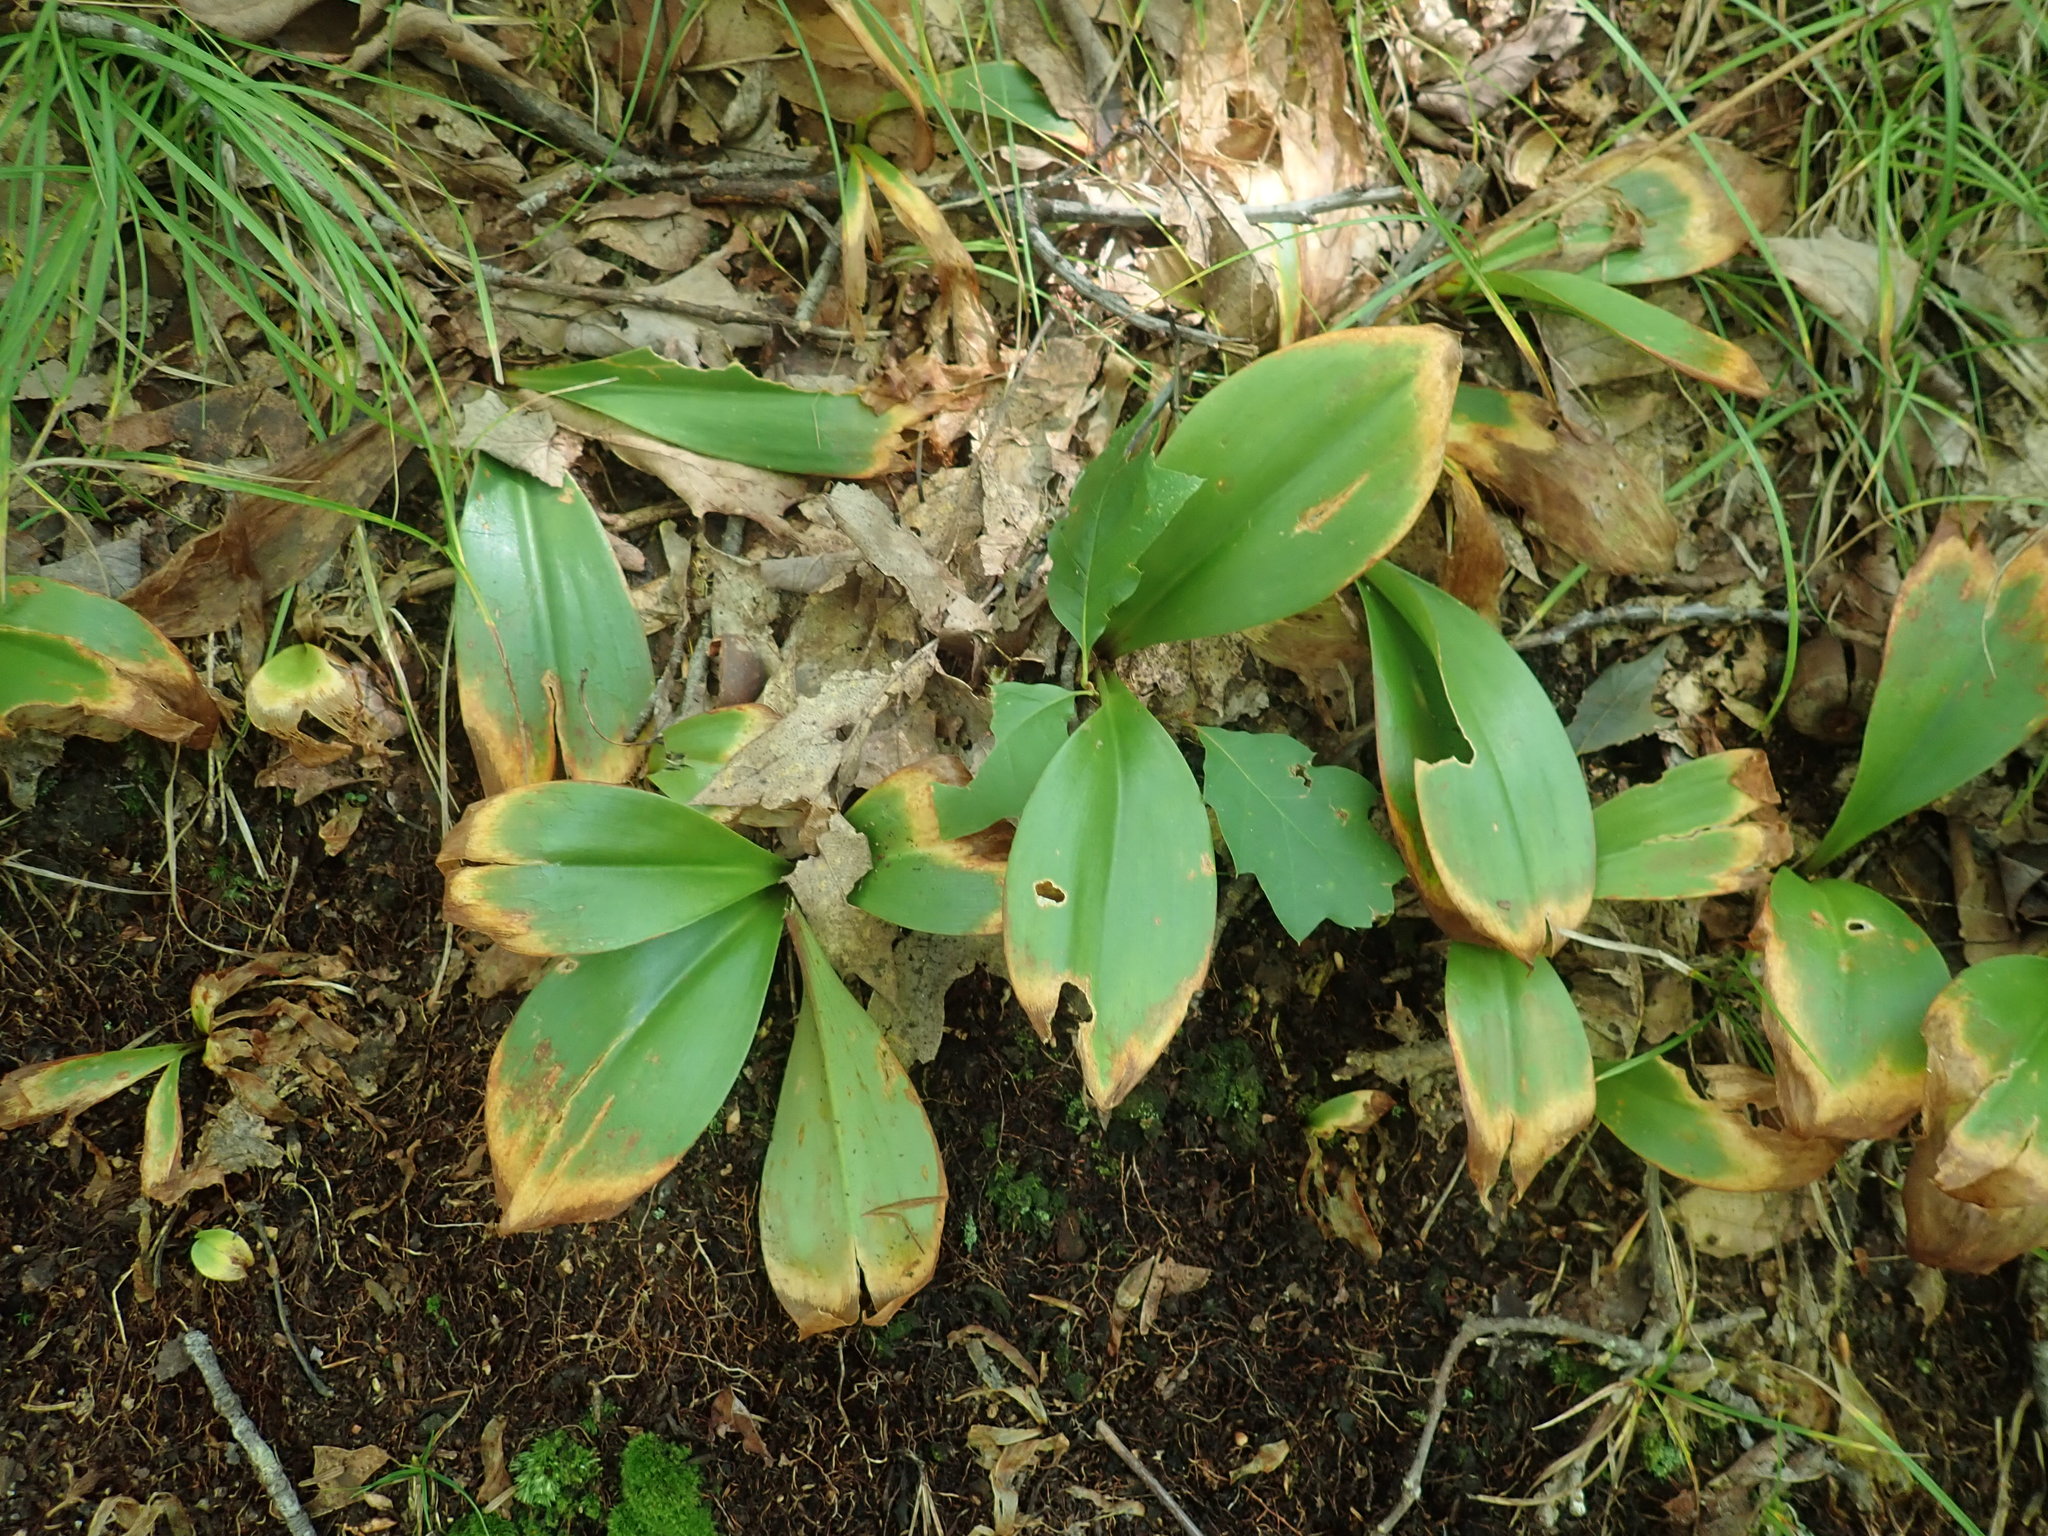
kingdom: Plantae
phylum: Tracheophyta
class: Liliopsida
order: Liliales
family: Liliaceae
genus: Clintonia
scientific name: Clintonia borealis
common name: Yellow clintonia
